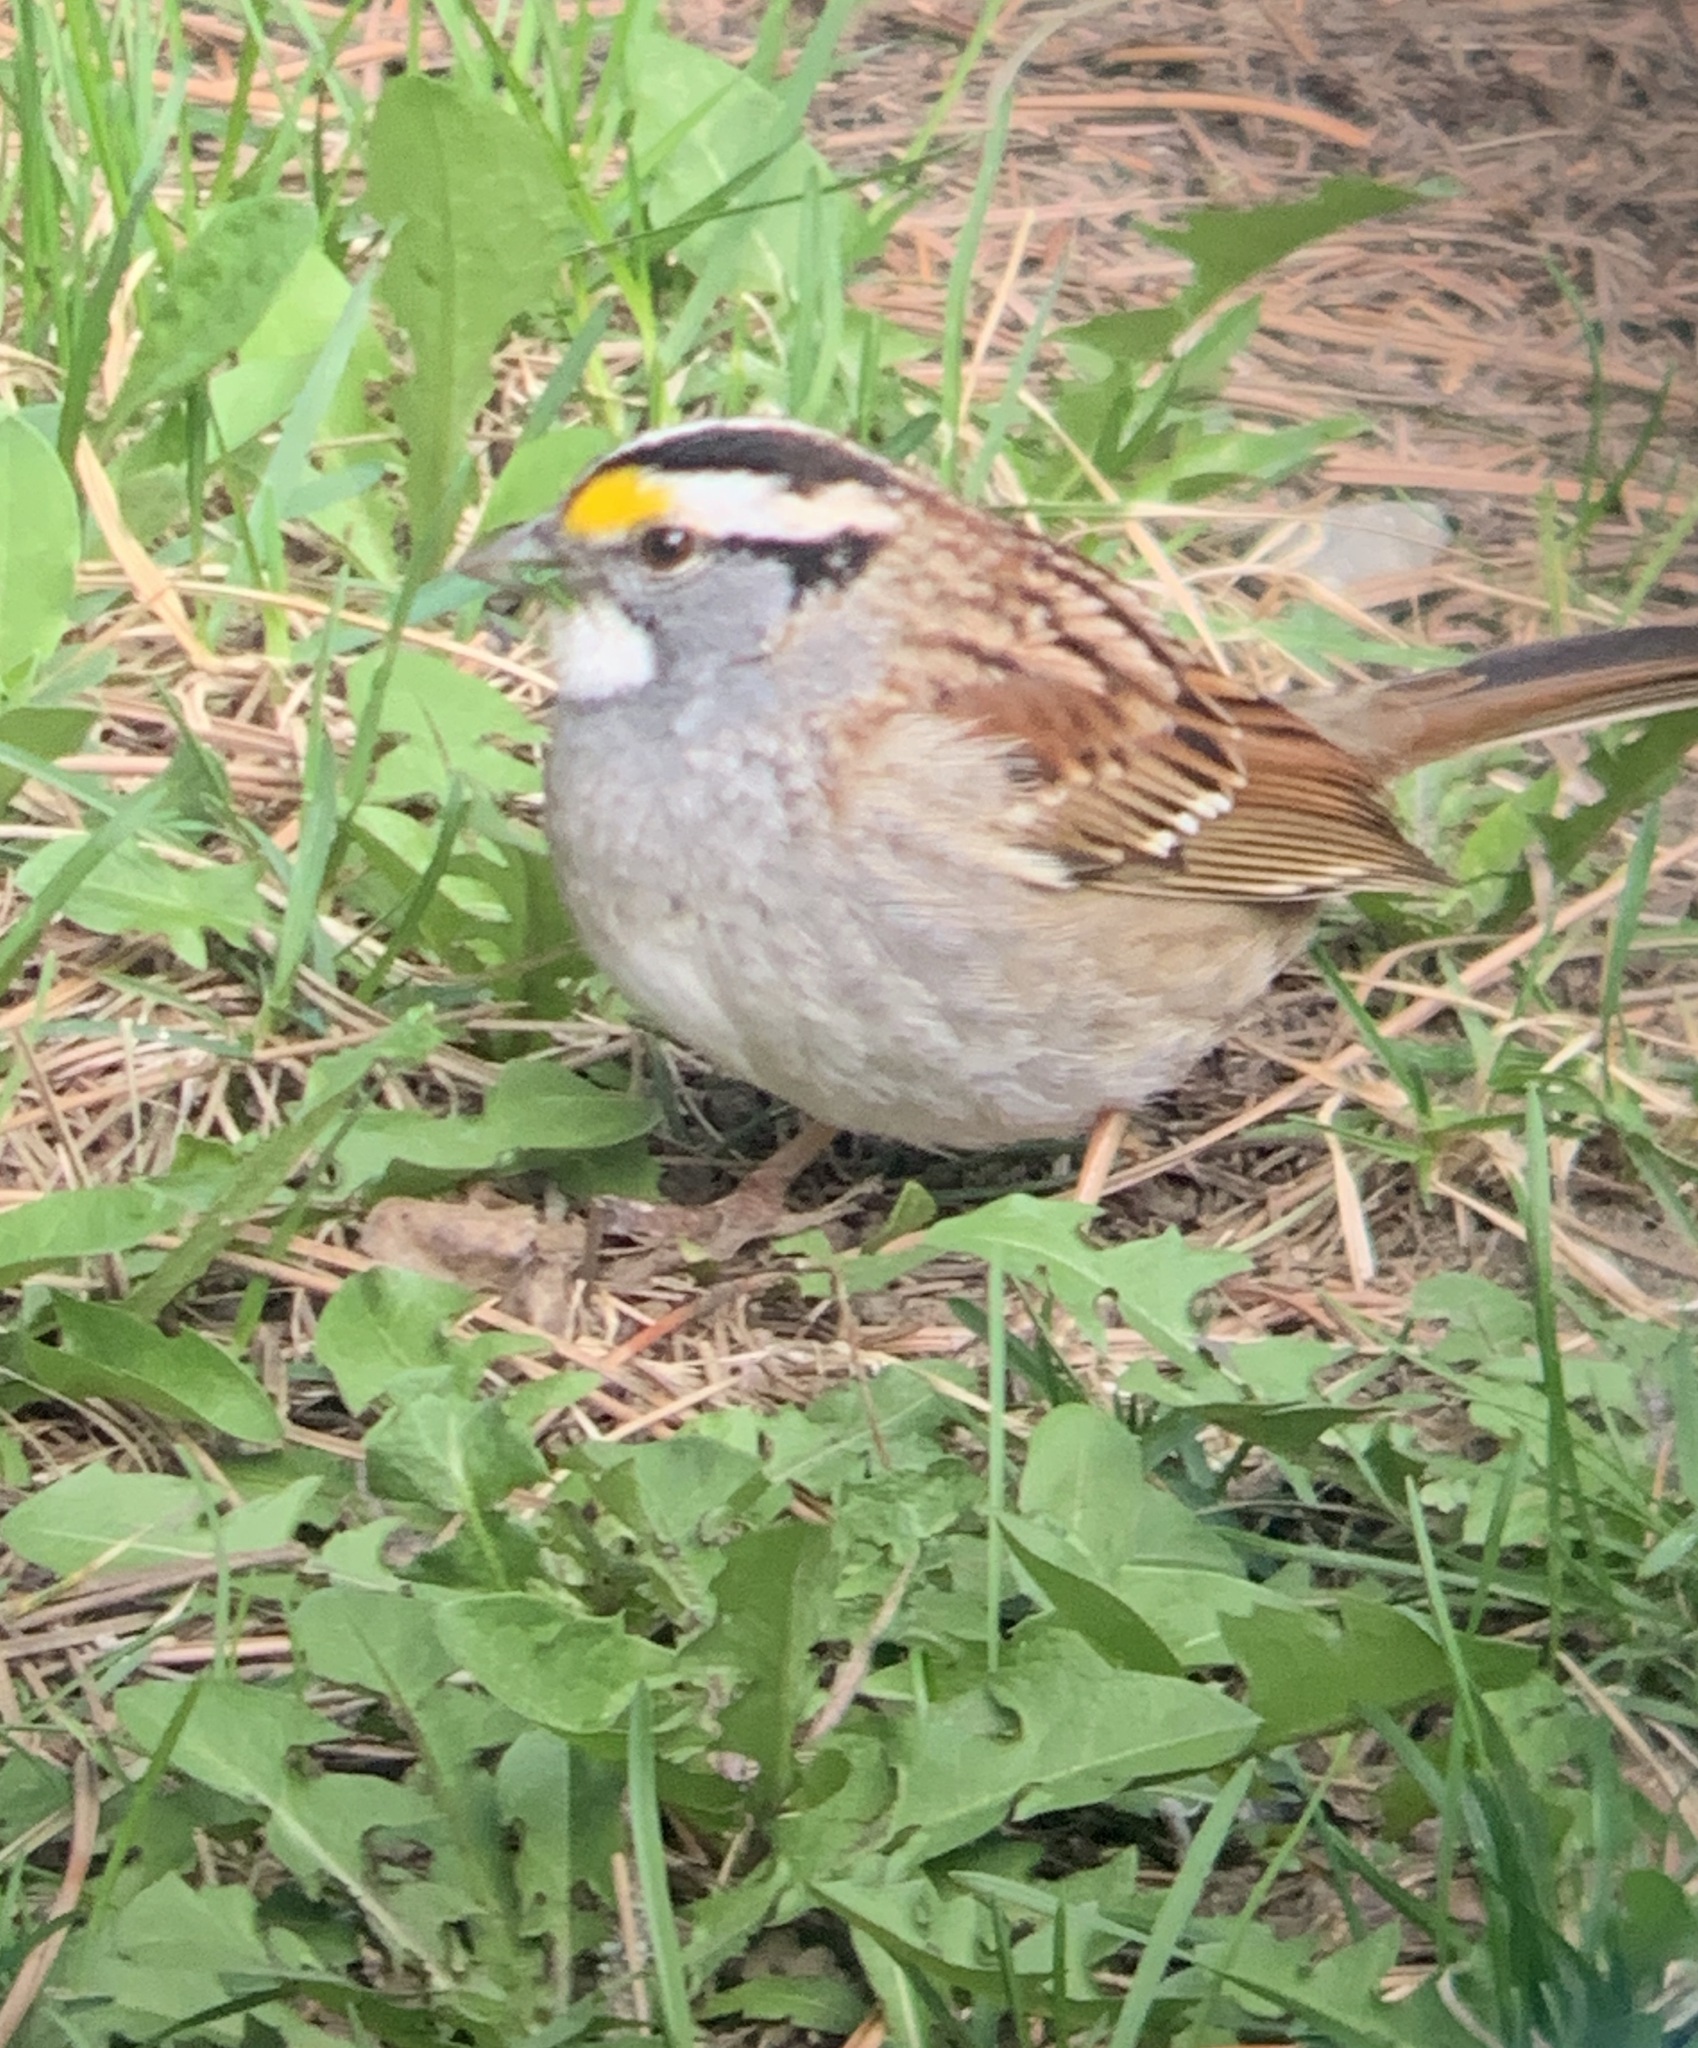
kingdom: Animalia
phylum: Chordata
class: Aves
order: Passeriformes
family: Passerellidae
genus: Zonotrichia
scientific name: Zonotrichia albicollis
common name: White-throated sparrow
